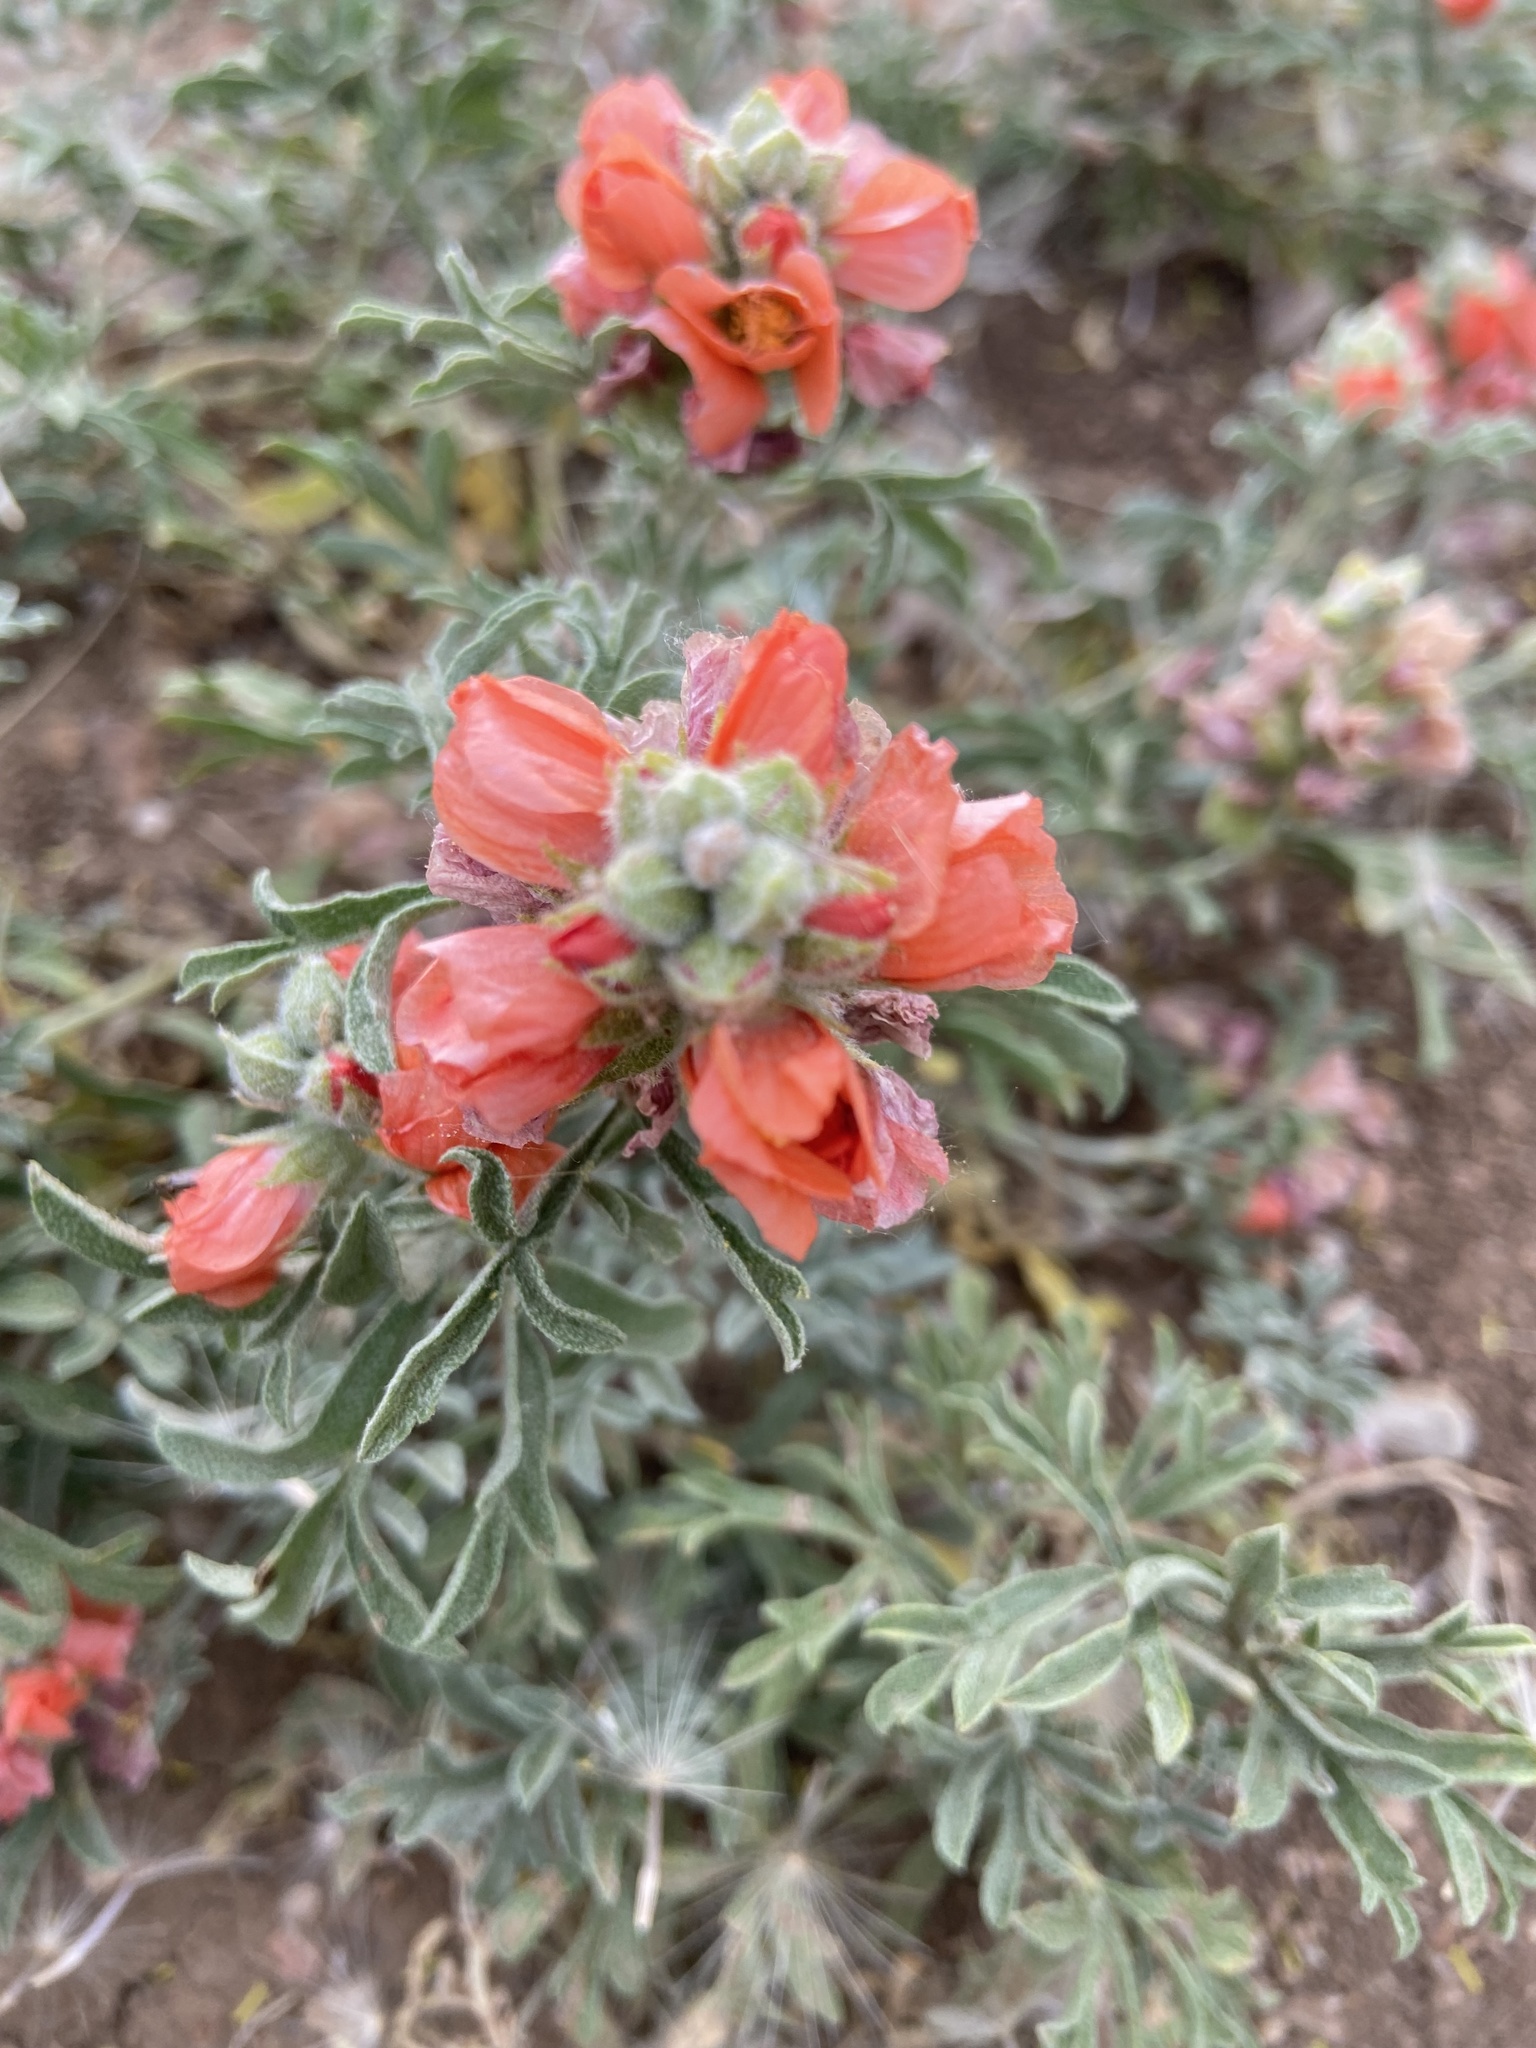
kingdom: Plantae
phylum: Tracheophyta
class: Magnoliopsida
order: Malvales
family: Malvaceae
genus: Sphaeralcea
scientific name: Sphaeralcea coccinea
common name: Moss-rose
